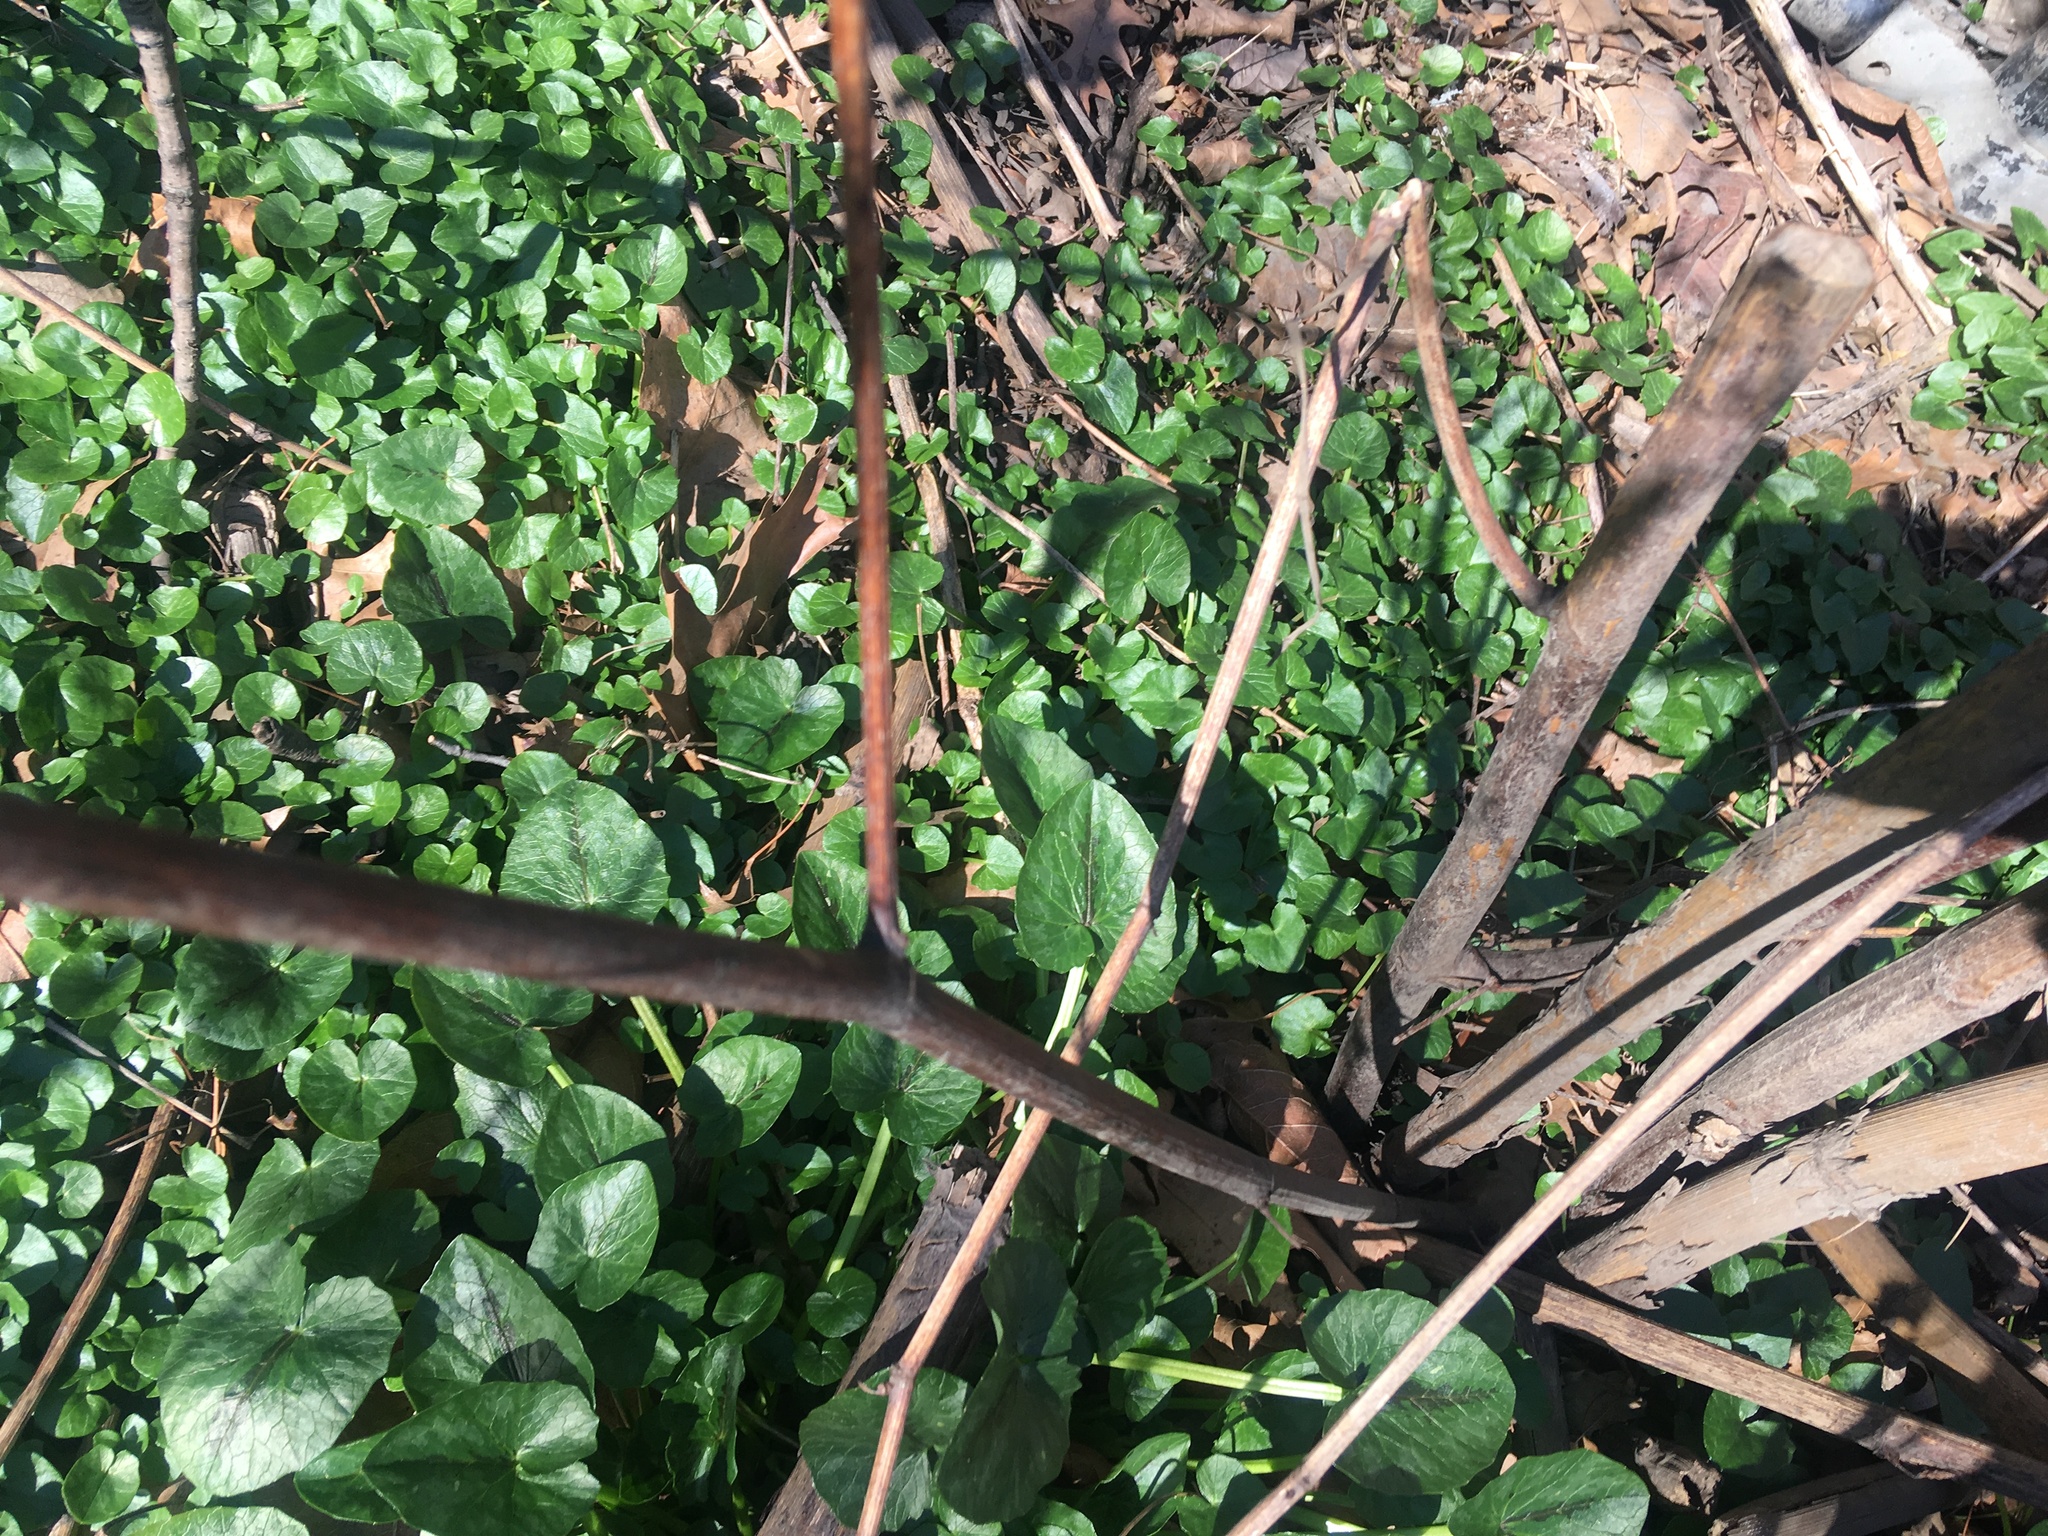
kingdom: Plantae
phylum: Tracheophyta
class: Magnoliopsida
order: Ranunculales
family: Ranunculaceae
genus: Ficaria
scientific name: Ficaria verna
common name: Lesser celandine
